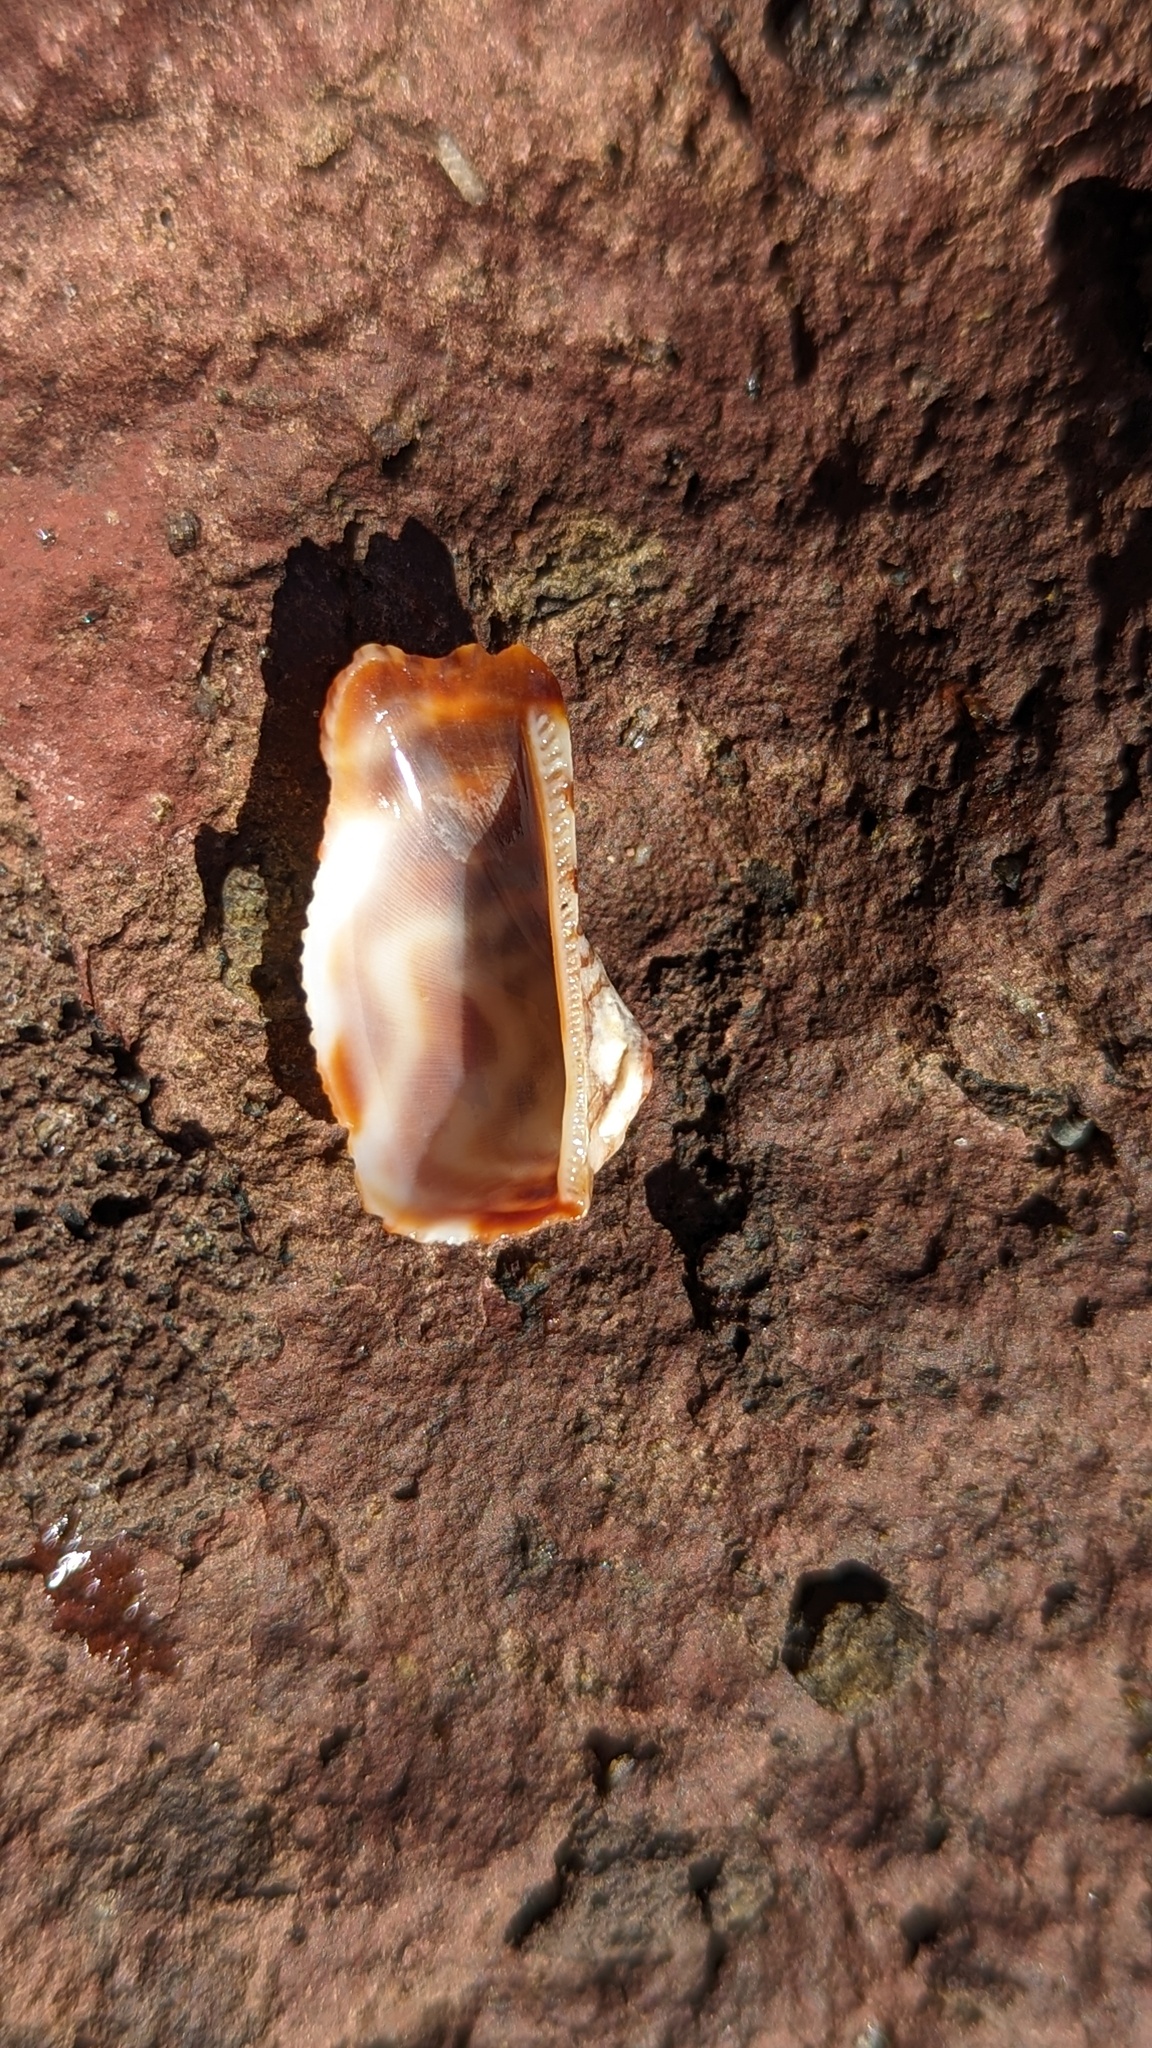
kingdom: Animalia
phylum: Mollusca
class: Bivalvia
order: Arcida
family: Arcidae
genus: Arca
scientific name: Arca pacifica
